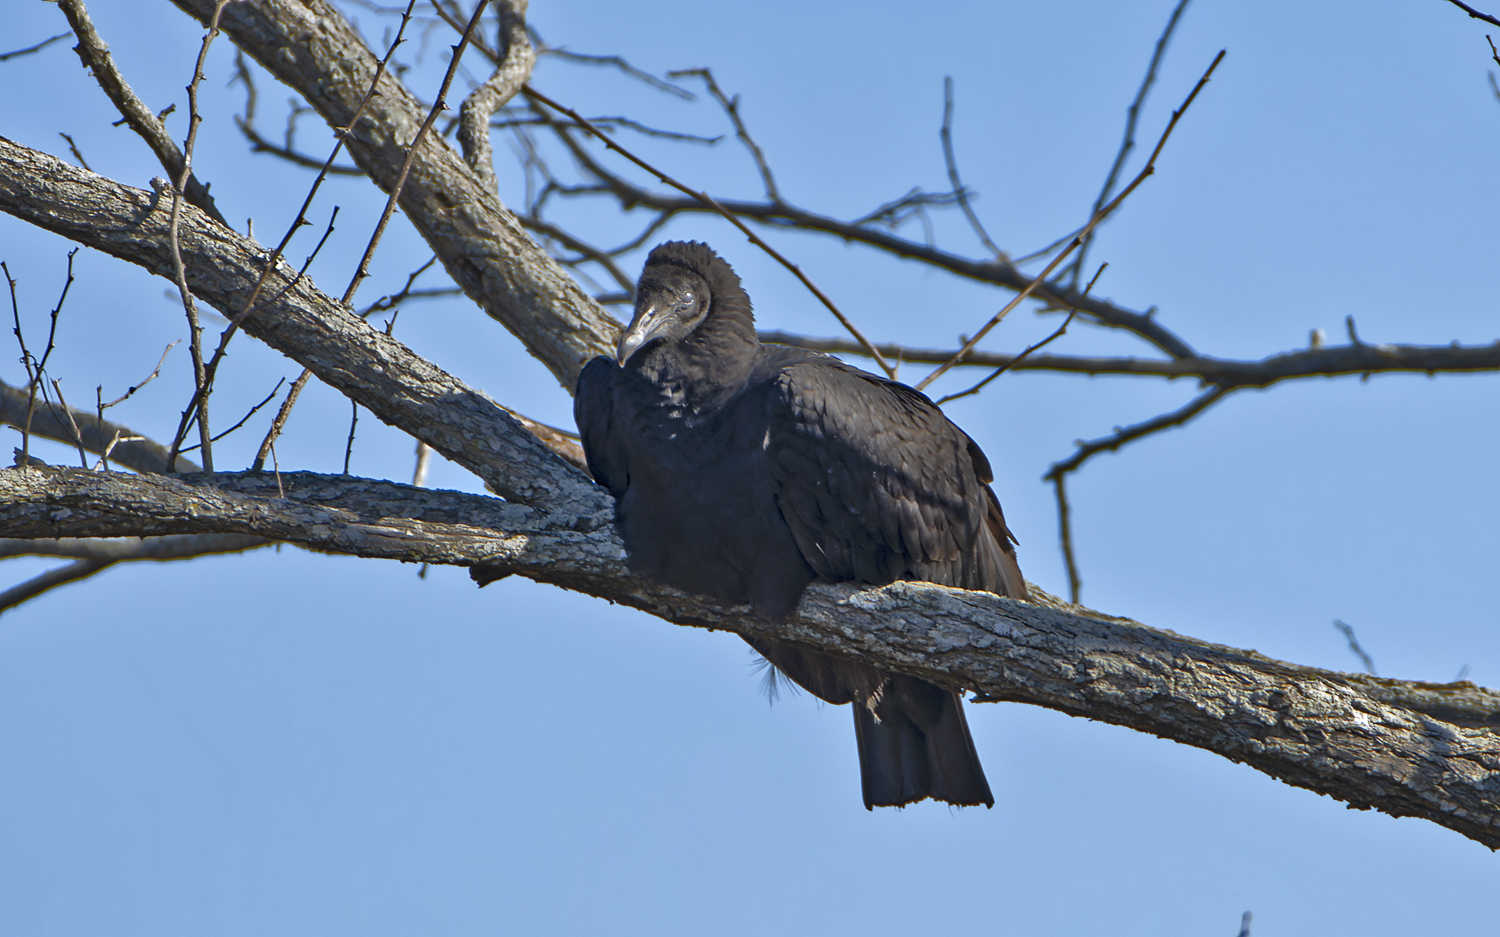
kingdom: Animalia
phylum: Chordata
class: Aves
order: Accipitriformes
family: Cathartidae
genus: Coragyps
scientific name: Coragyps atratus
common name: Black vulture
